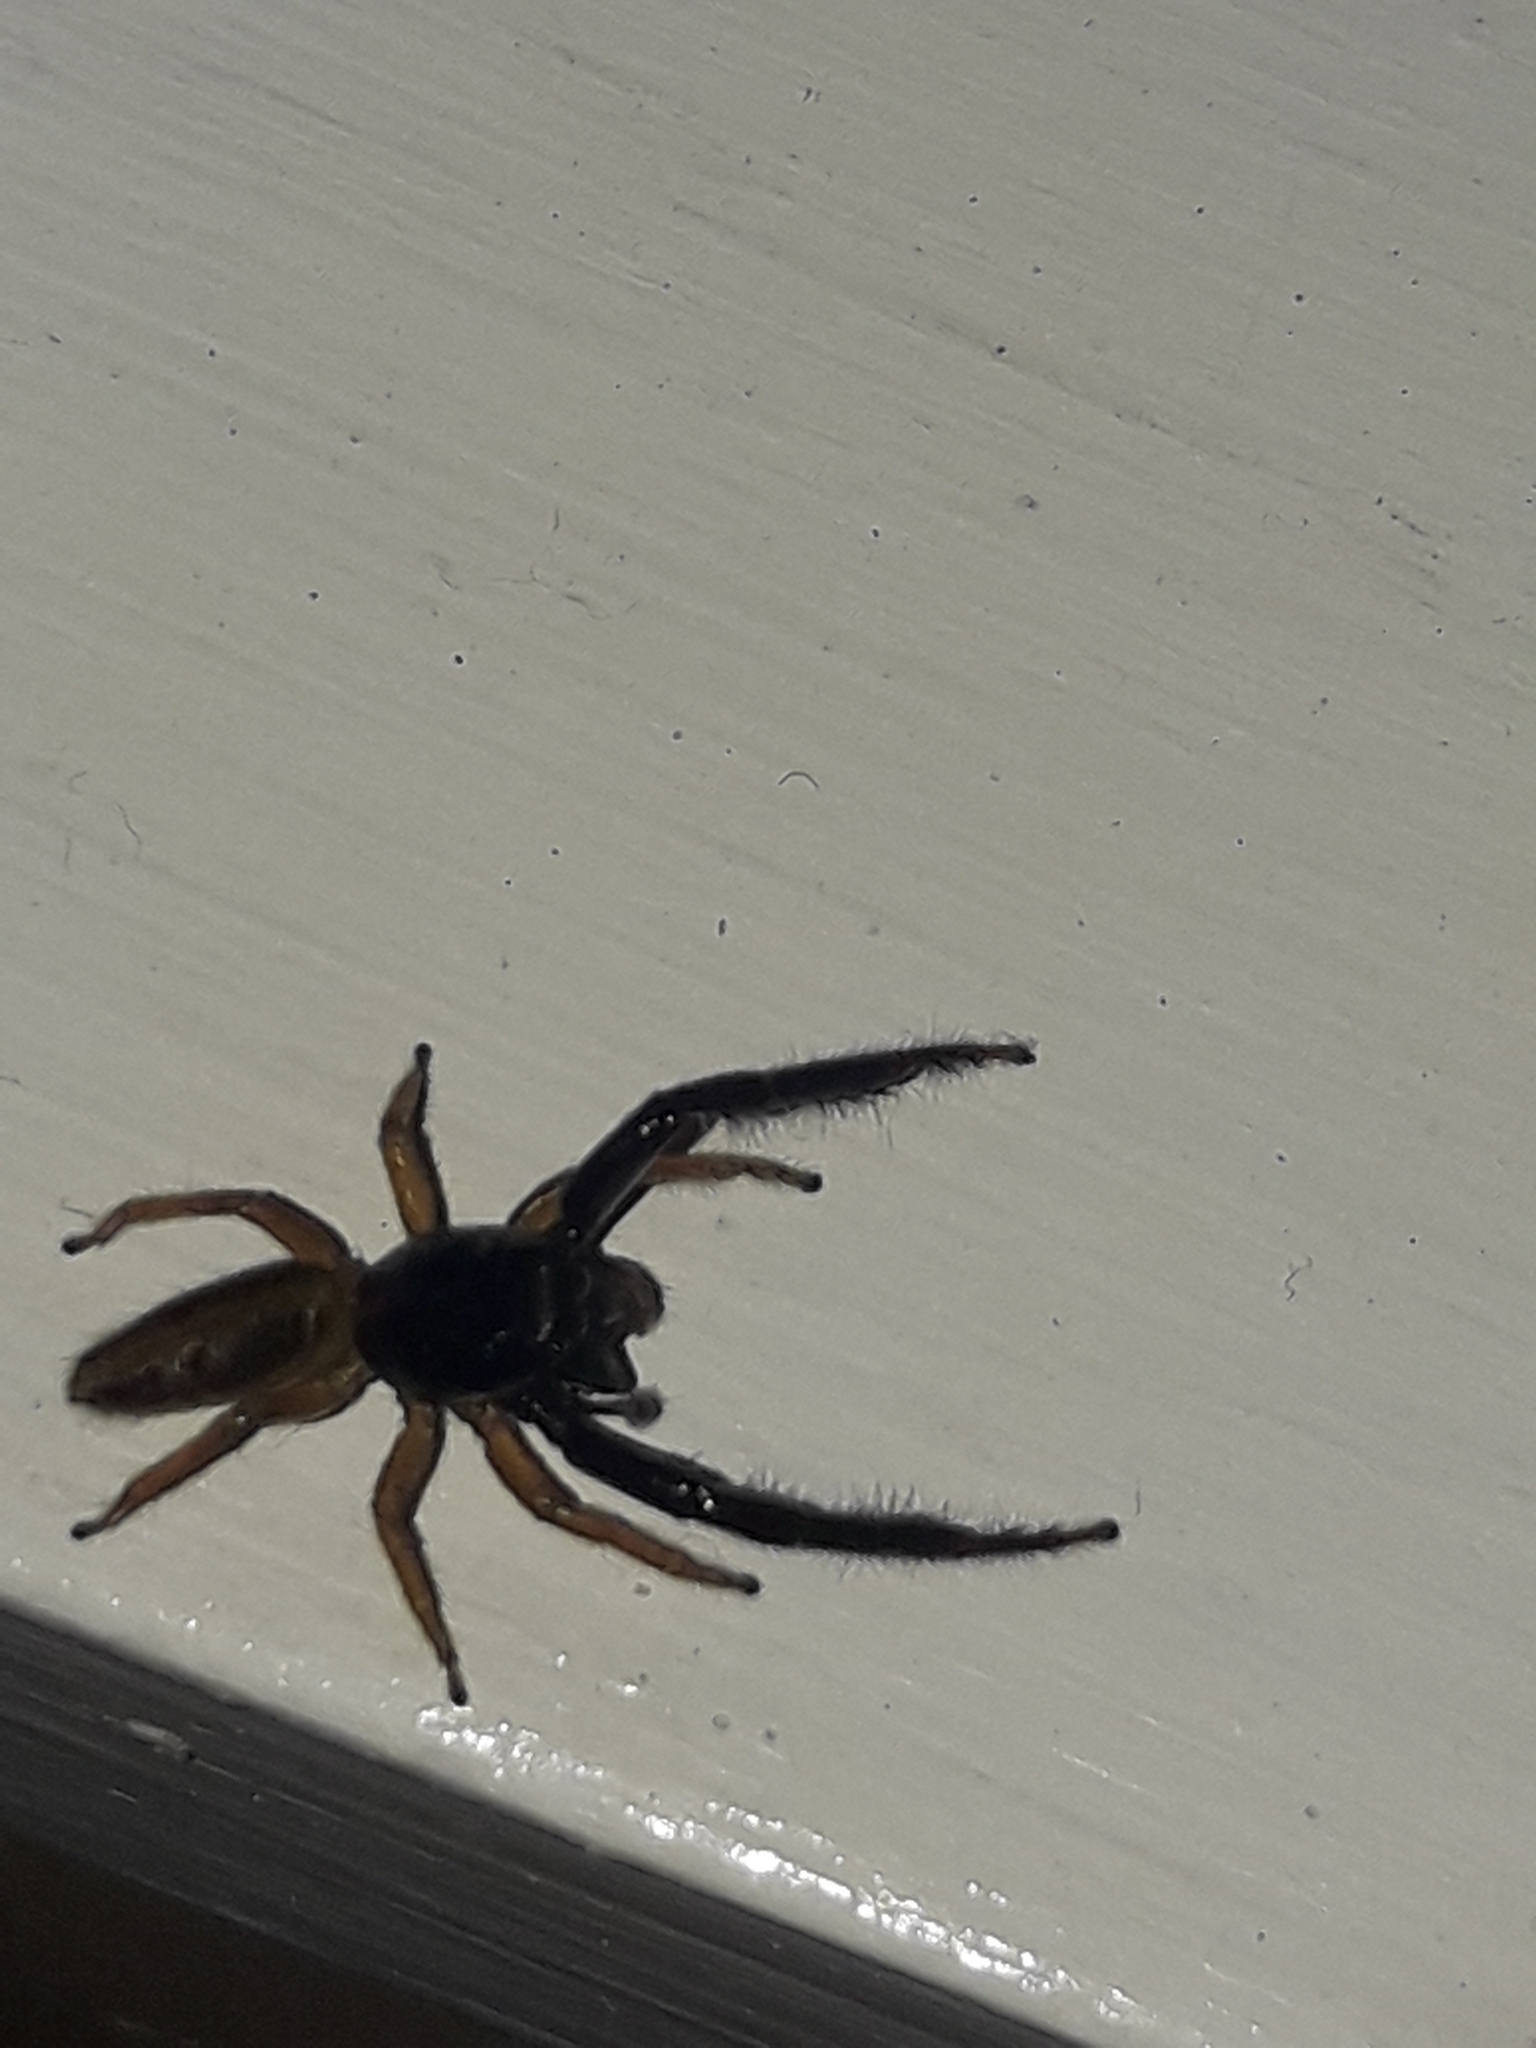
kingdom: Animalia
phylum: Arthropoda
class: Arachnida
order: Araneae
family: Salticidae
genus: Trite
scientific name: Trite planiceps
